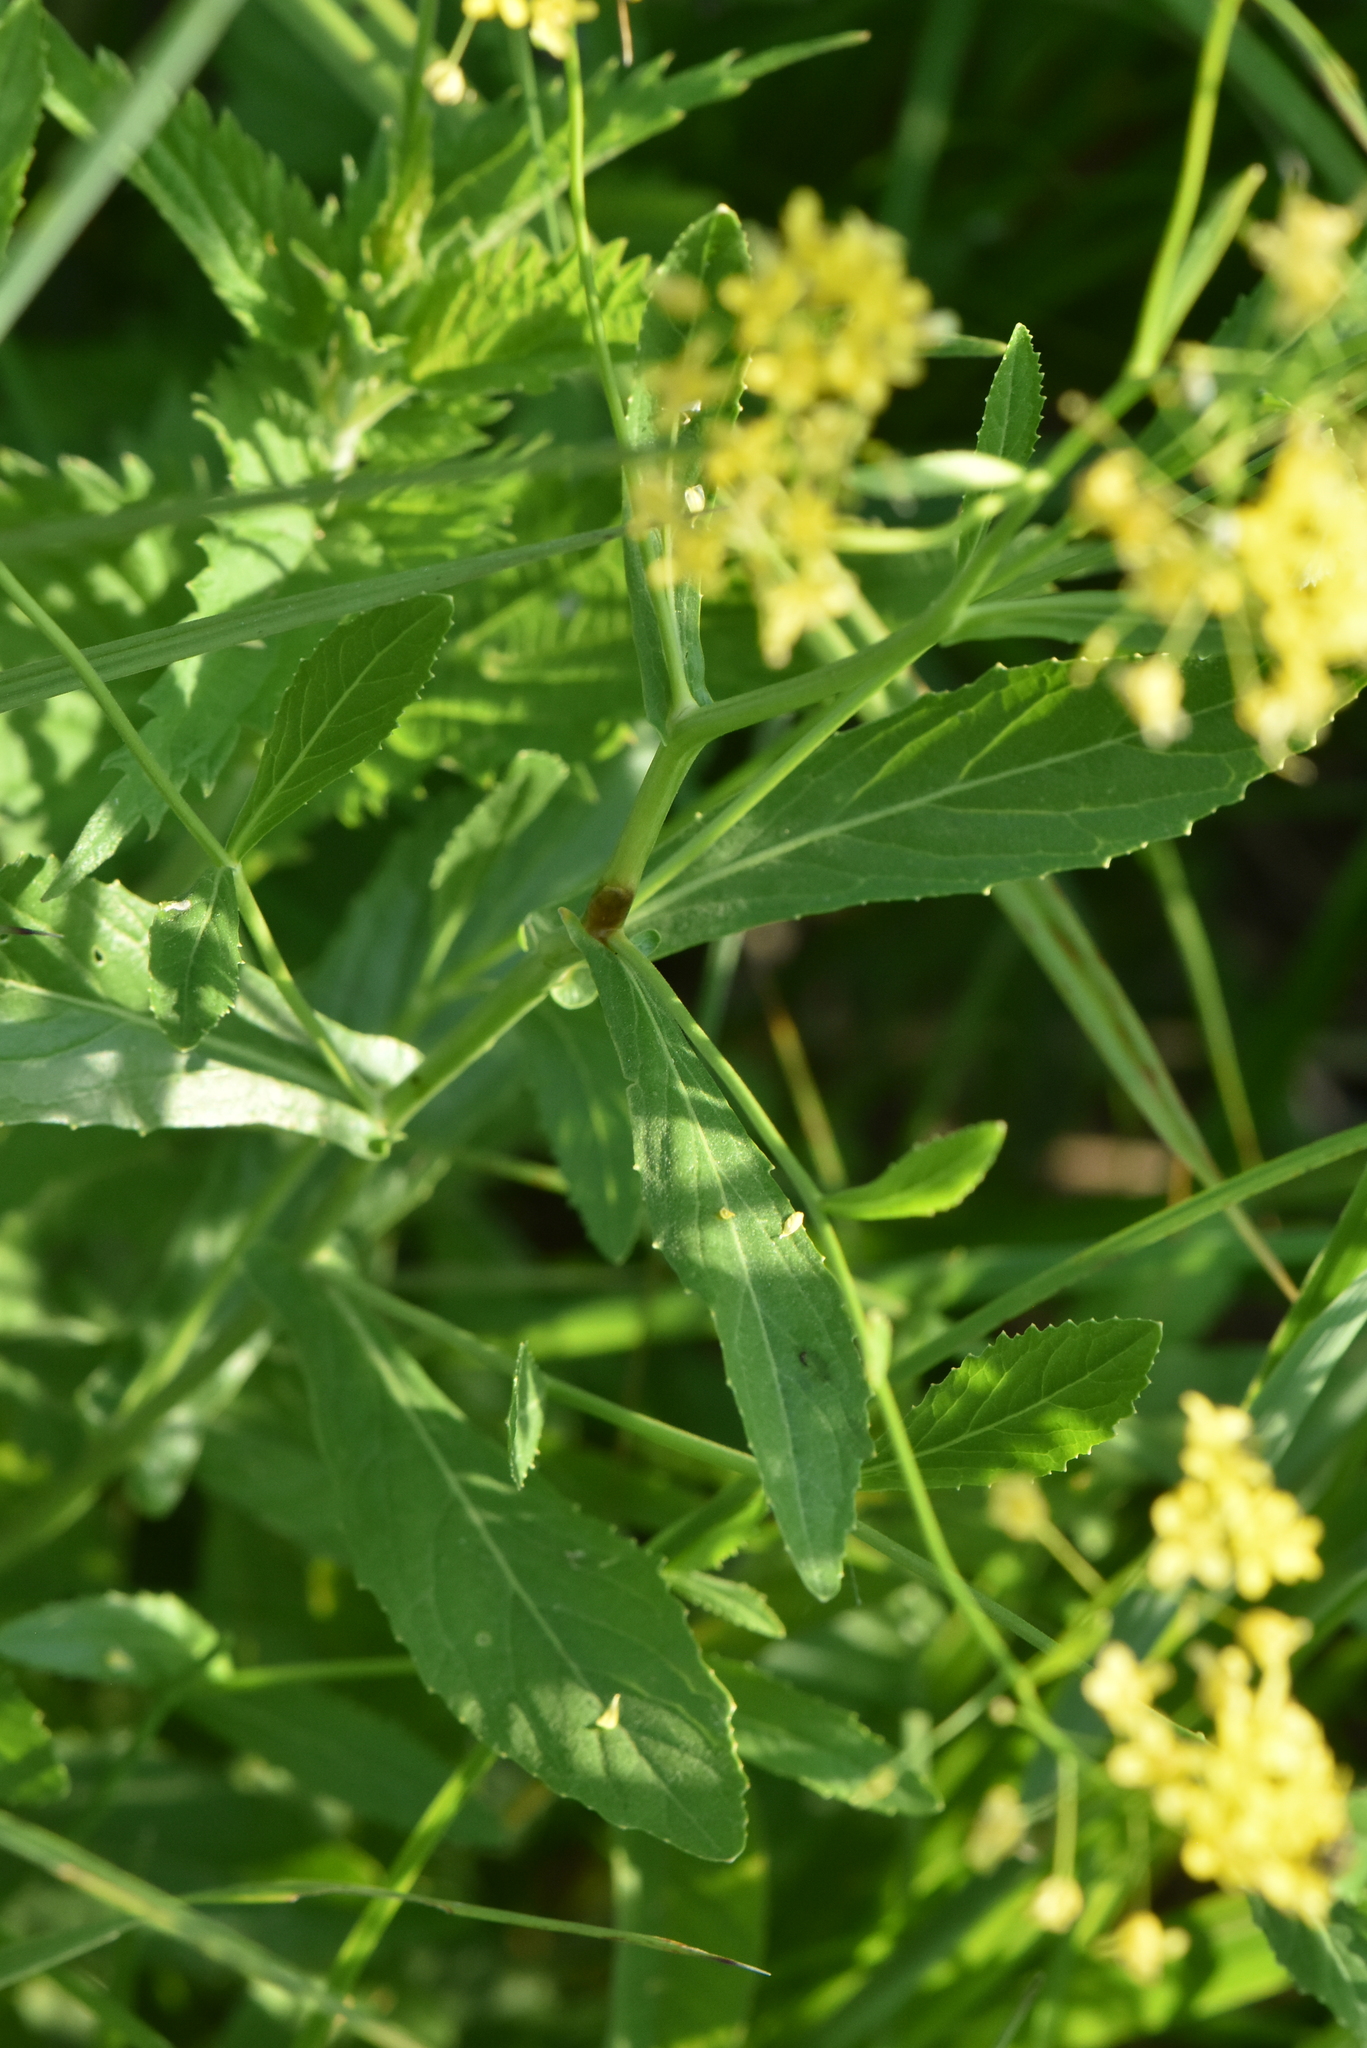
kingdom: Plantae
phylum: Tracheophyta
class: Magnoliopsida
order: Brassicales
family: Brassicaceae
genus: Rorippa
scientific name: Rorippa austriaca
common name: Austrian yellow-cress
